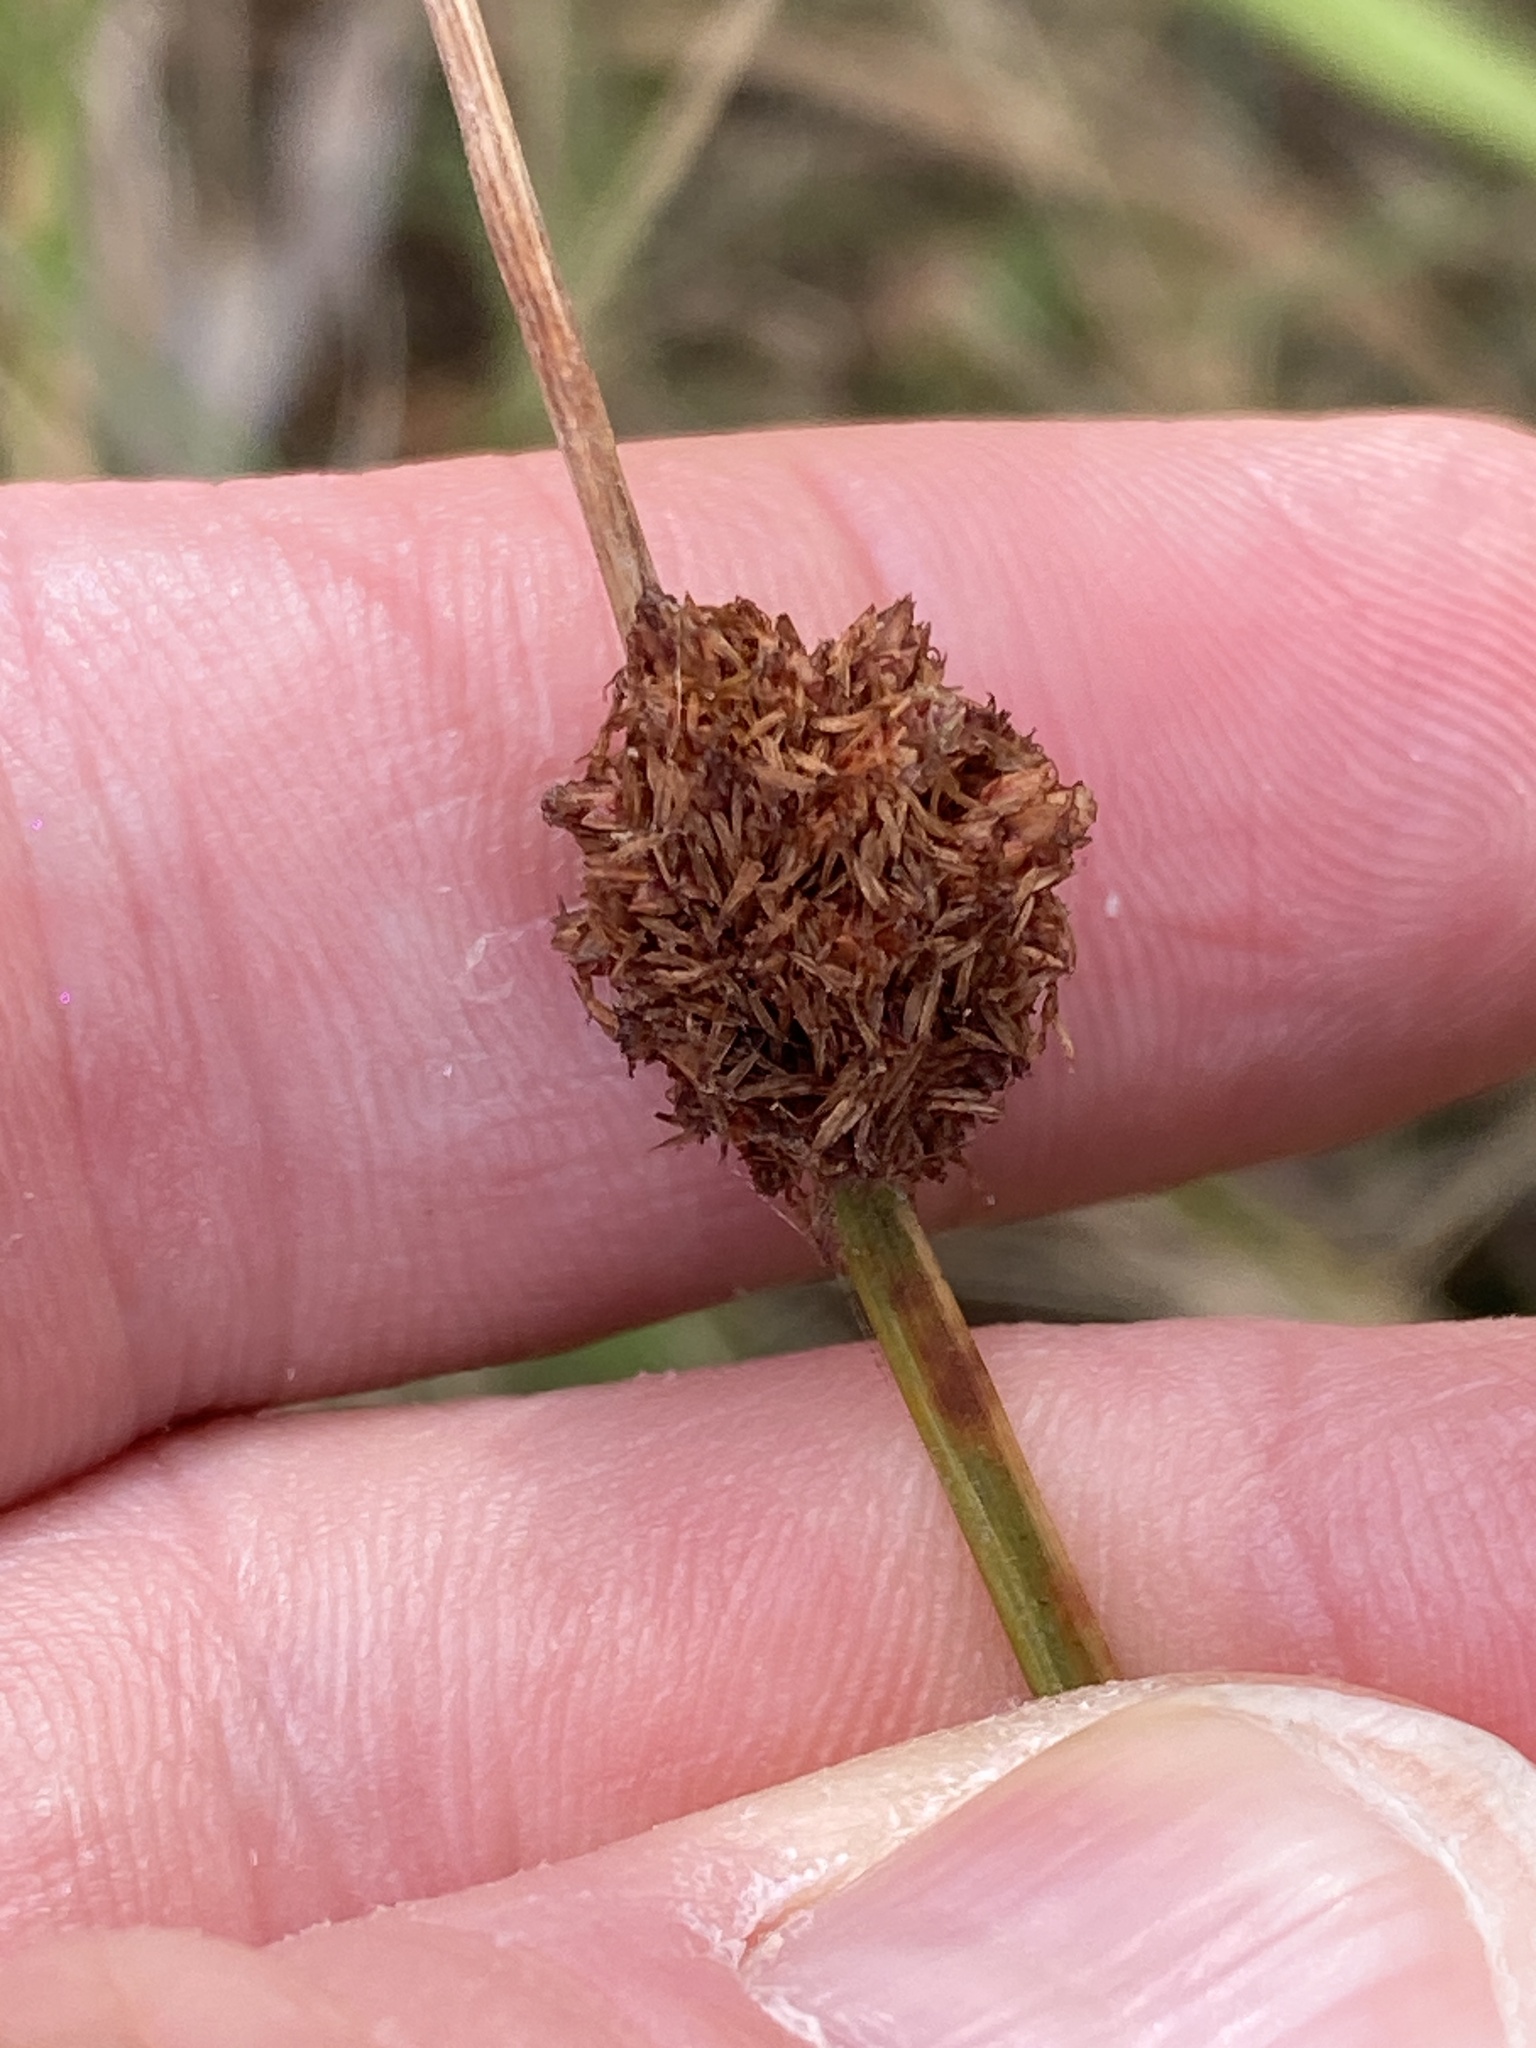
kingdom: Plantae
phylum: Tracheophyta
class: Liliopsida
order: Poales
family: Cyperaceae
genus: Ficinia
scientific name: Ficinia nodosa
